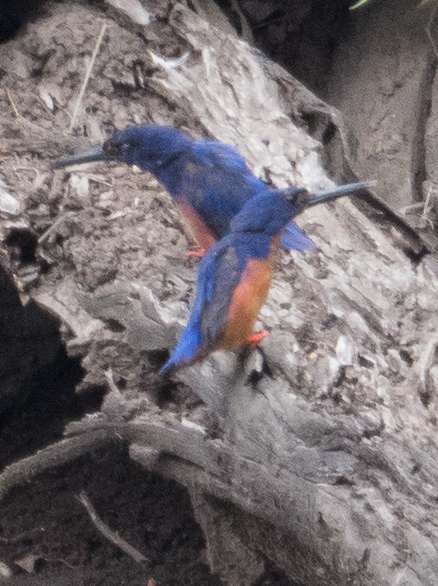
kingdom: Animalia
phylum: Chordata
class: Aves
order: Coraciiformes
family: Alcedinidae
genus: Ceyx
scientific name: Ceyx azureus
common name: Azure kingfisher
